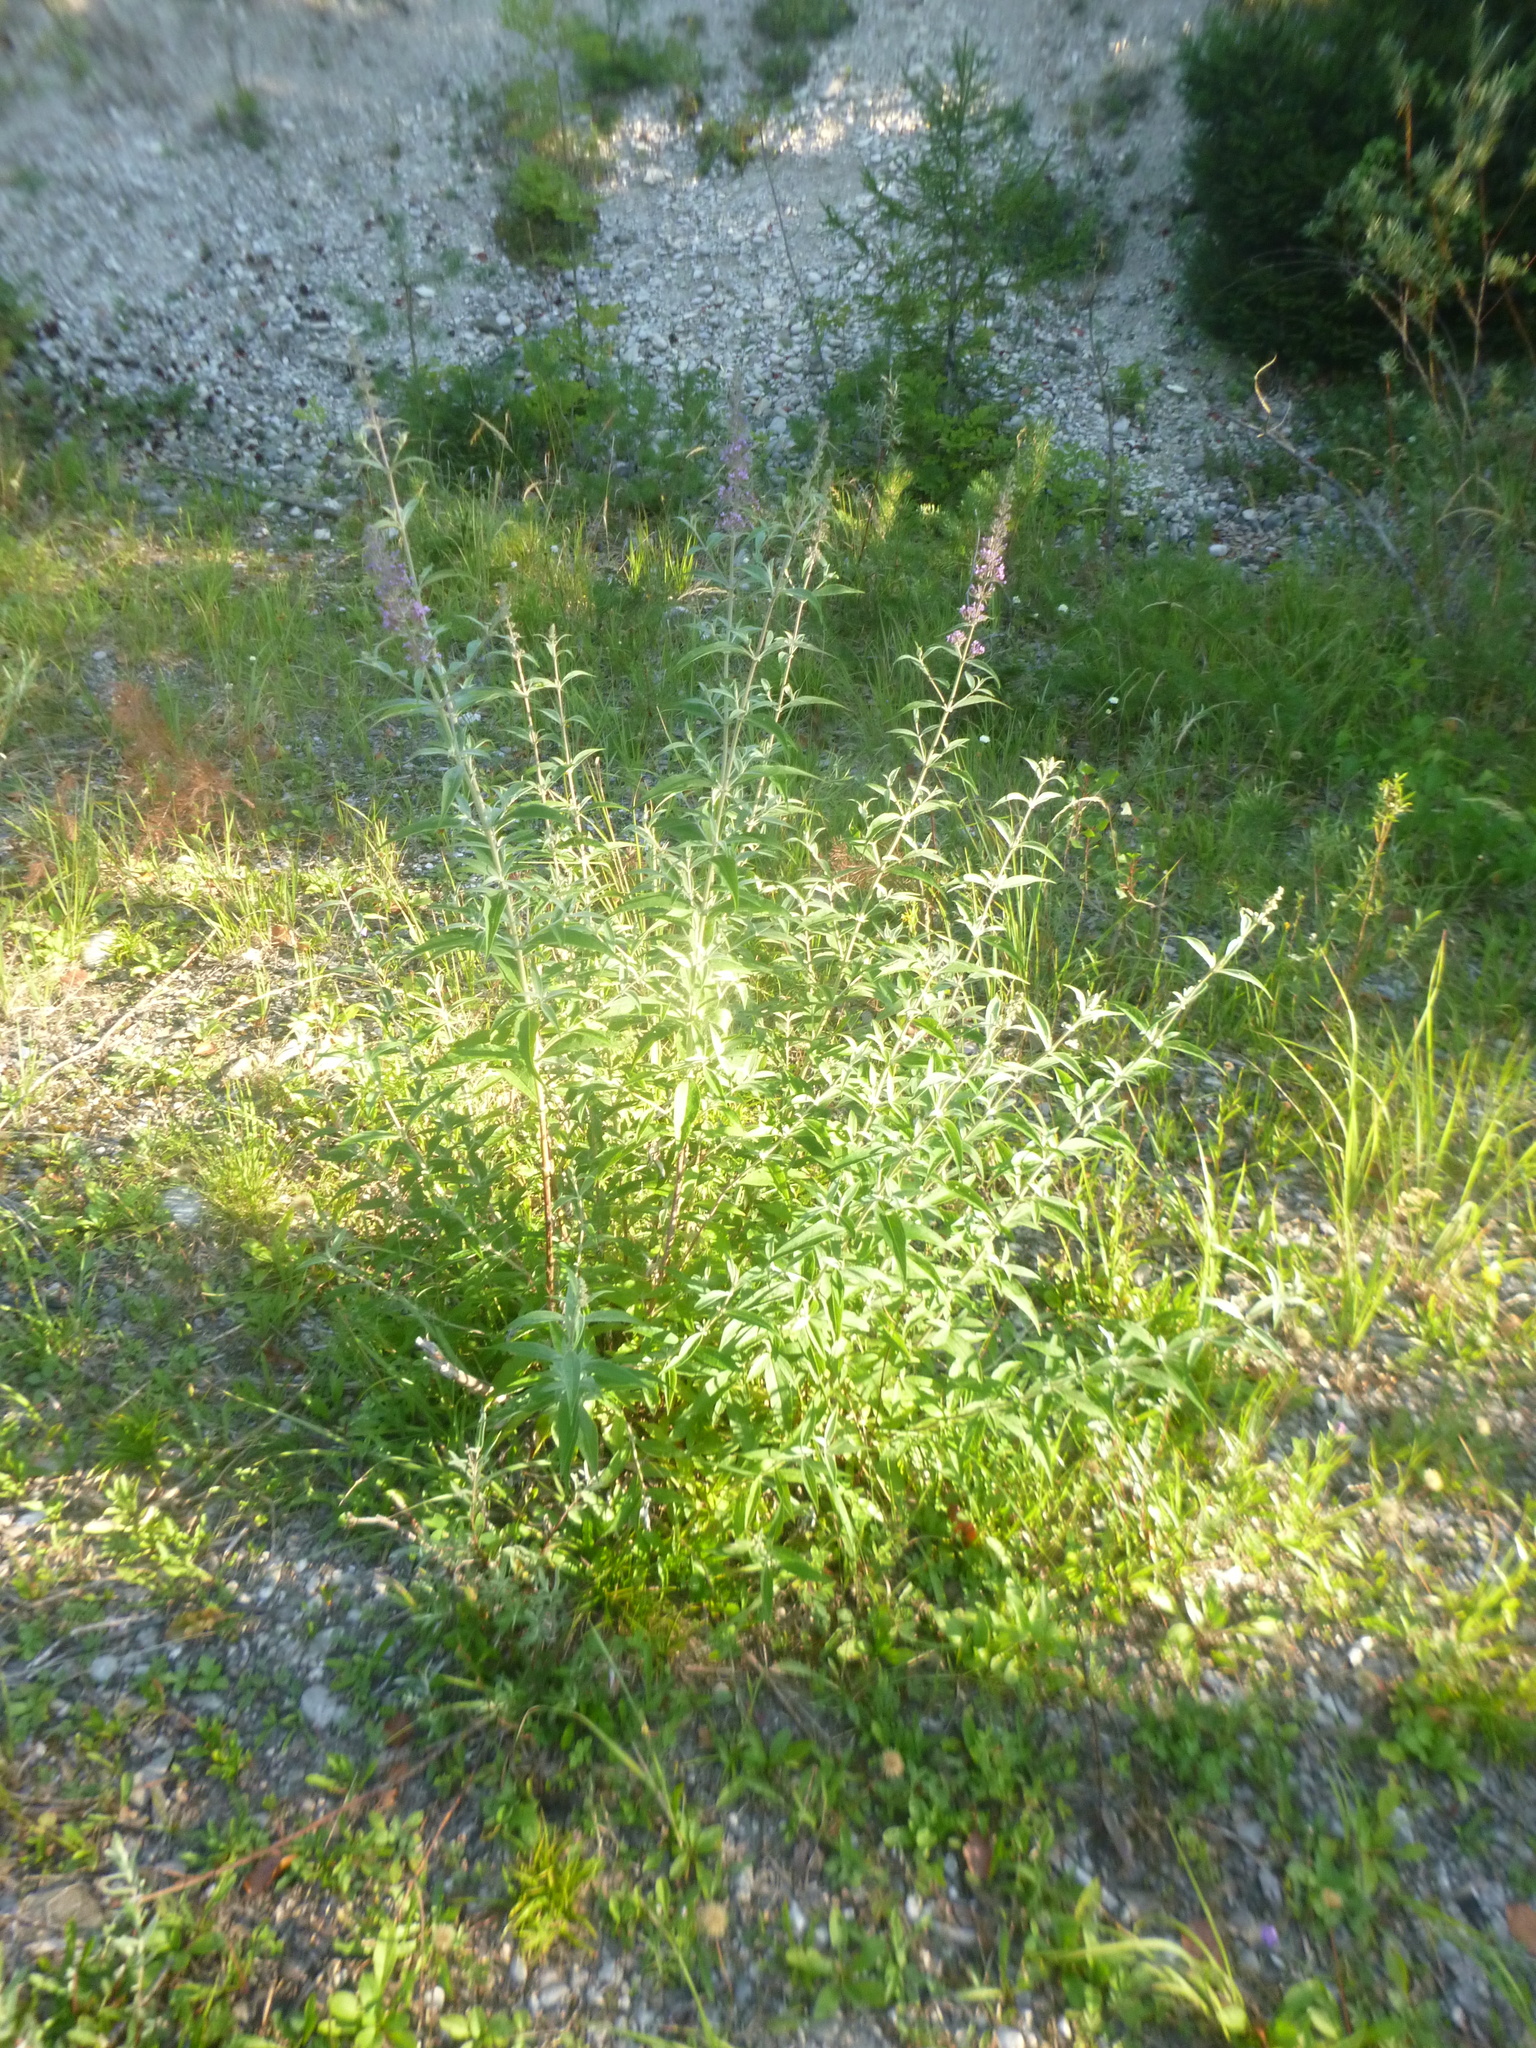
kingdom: Plantae
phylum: Tracheophyta
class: Magnoliopsida
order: Lamiales
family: Scrophulariaceae
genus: Buddleja
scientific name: Buddleja davidii
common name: Butterfly-bush
